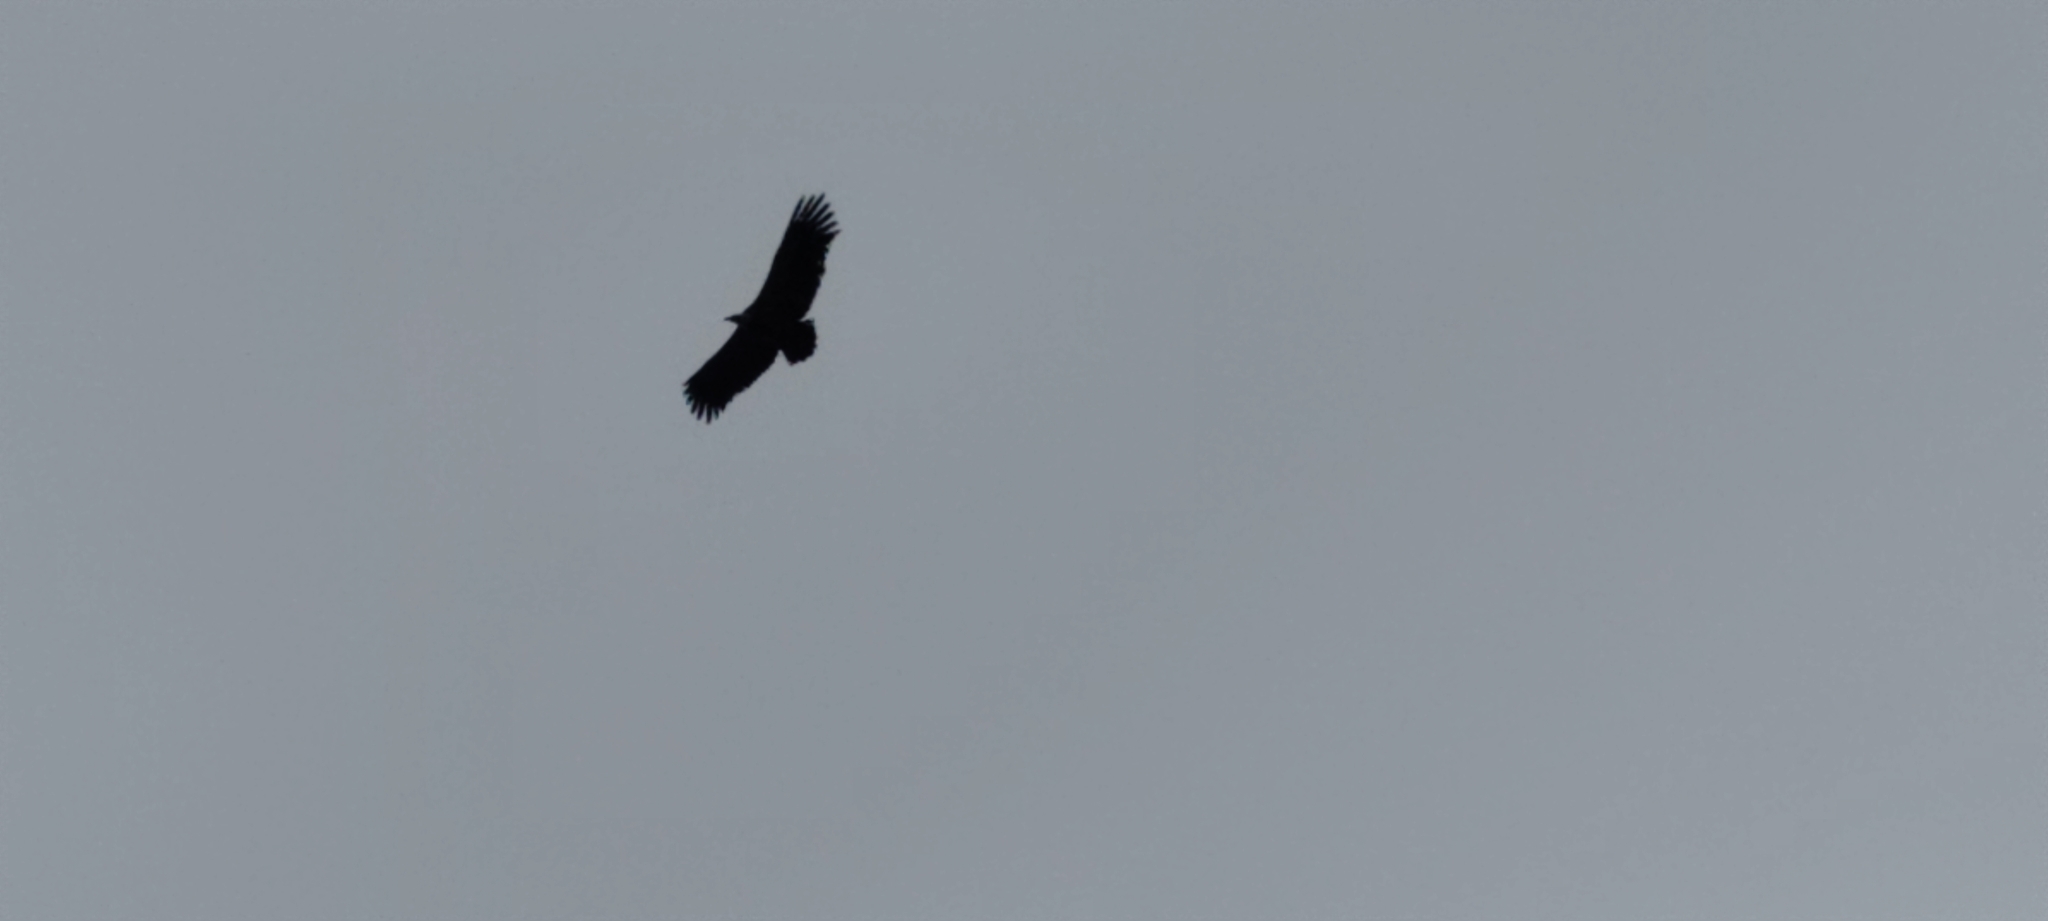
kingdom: Animalia
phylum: Chordata
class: Aves
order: Accipitriformes
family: Accipitridae
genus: Gyps
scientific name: Gyps fulvus
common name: Griffon vulture
